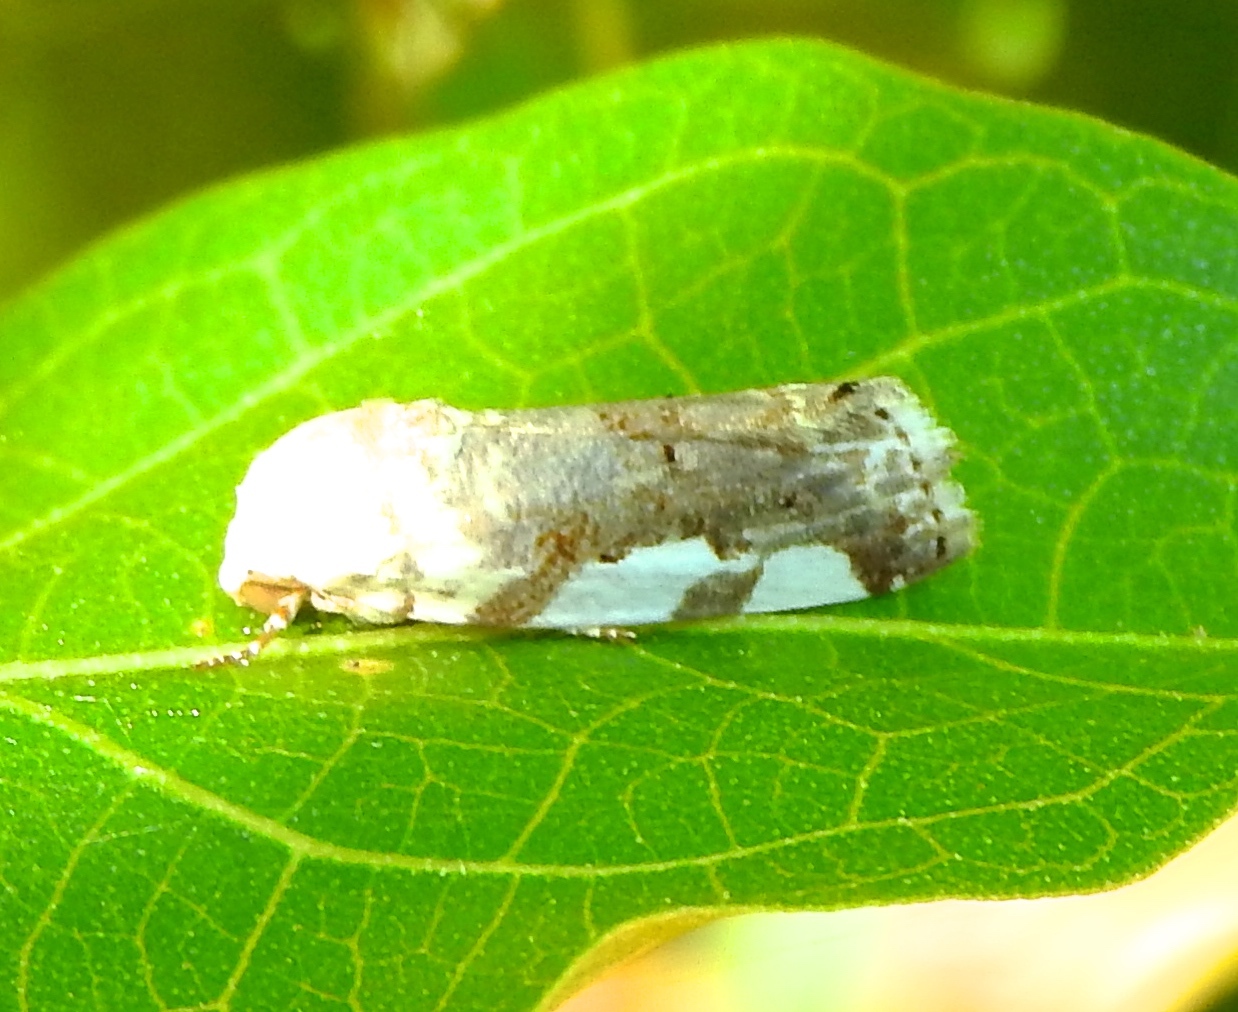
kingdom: Animalia
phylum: Arthropoda
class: Insecta
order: Lepidoptera
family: Noctuidae
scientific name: Noctuidae
